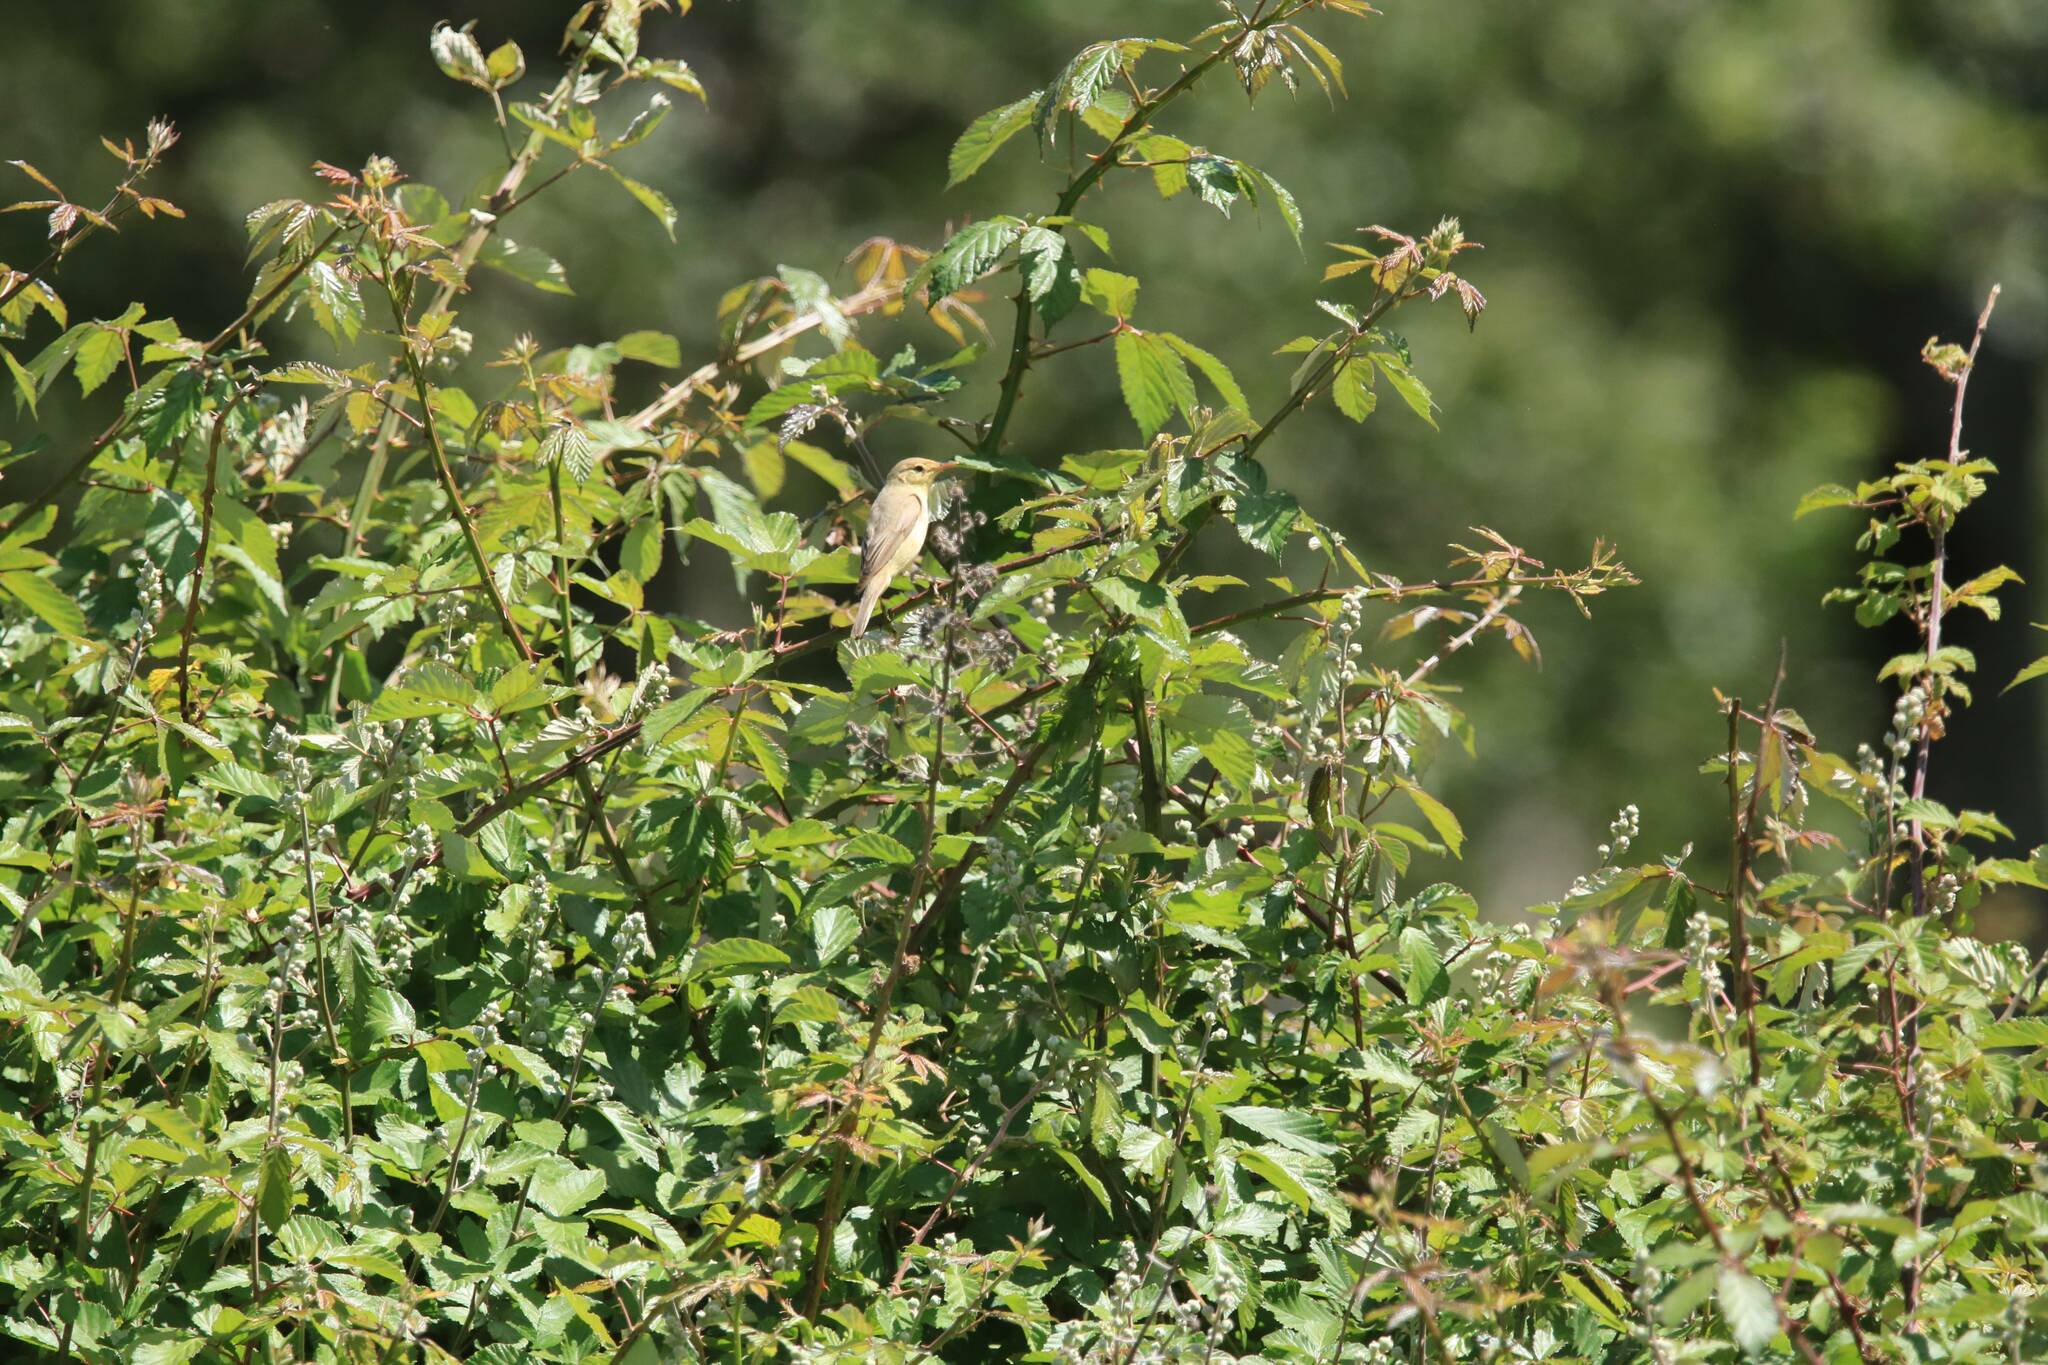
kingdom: Animalia
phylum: Chordata
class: Aves
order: Passeriformes
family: Acrocephalidae
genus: Hippolais
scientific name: Hippolais polyglotta
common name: Melodious warbler
